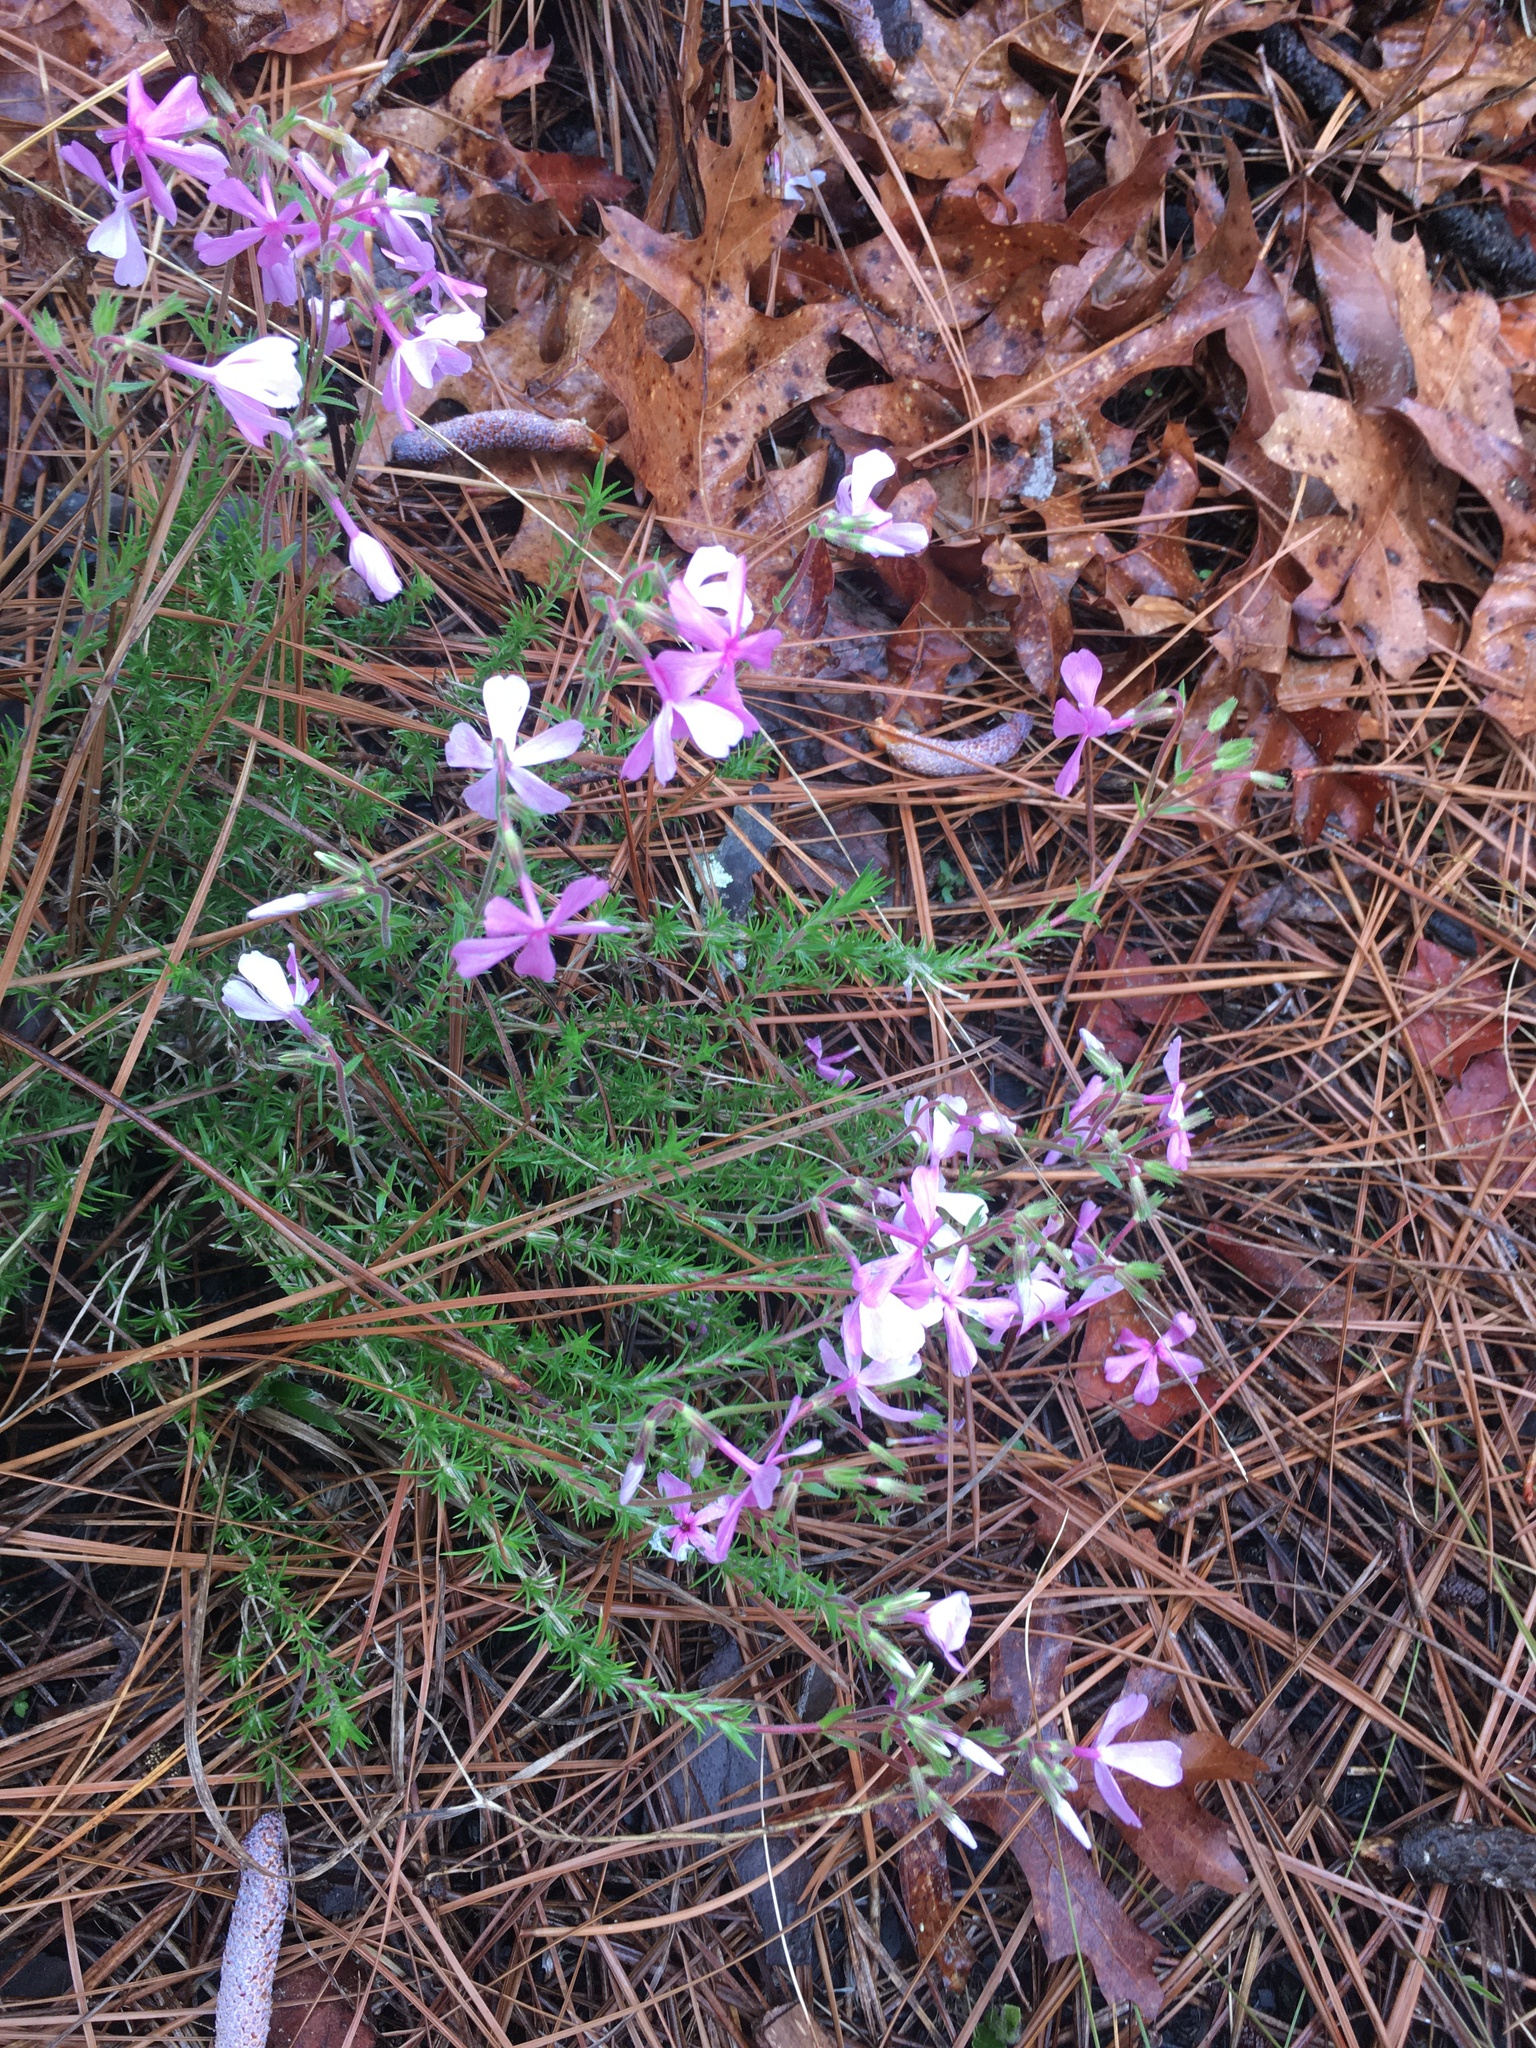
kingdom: Plantae
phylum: Tracheophyta
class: Magnoliopsida
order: Ericales
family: Polemoniaceae
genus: Phlox
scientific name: Phlox nivalis
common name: Trailing phlox
